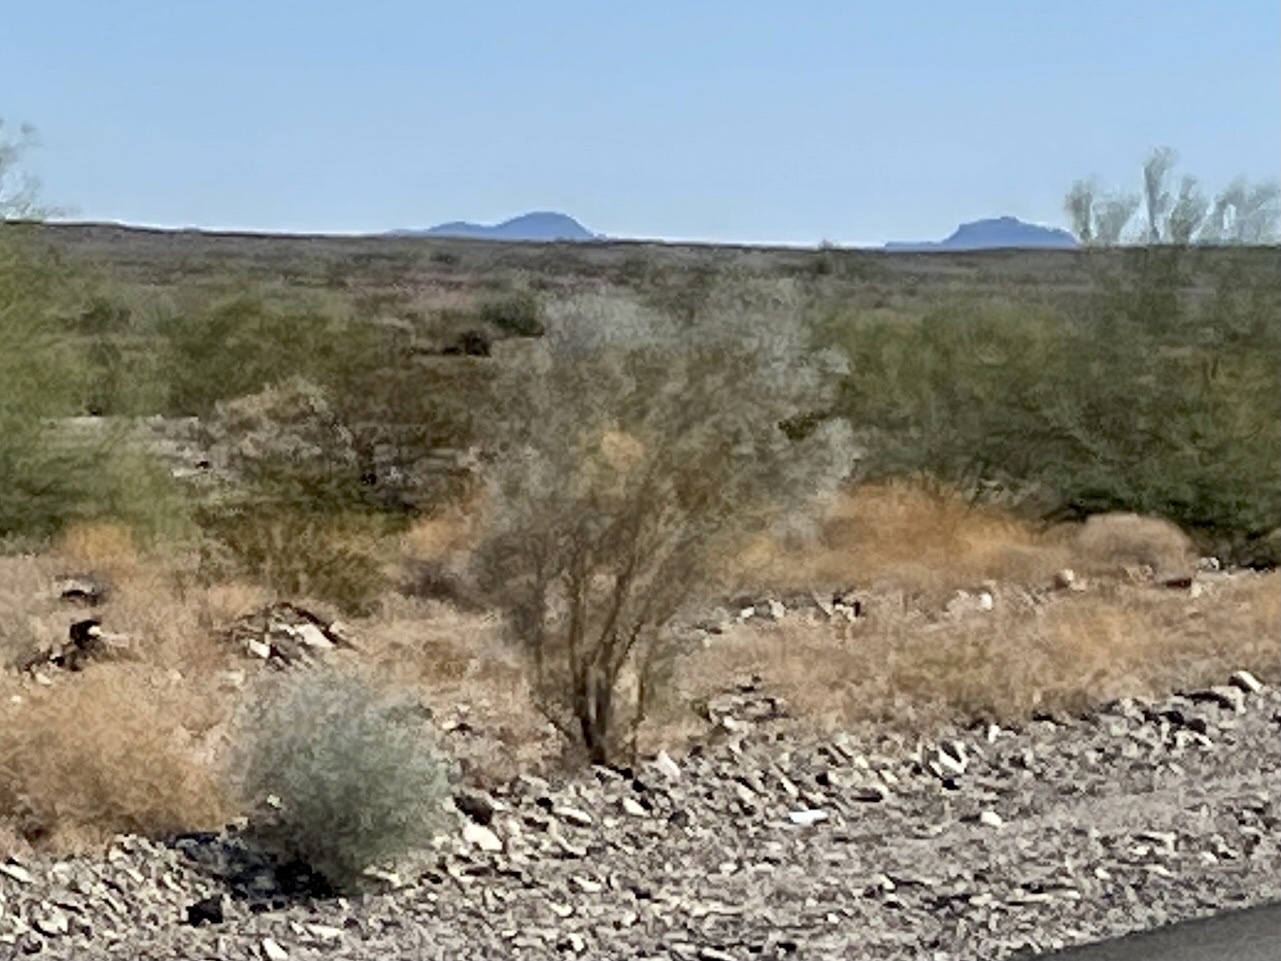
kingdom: Plantae
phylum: Tracheophyta
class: Magnoliopsida
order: Fabales
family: Fabaceae
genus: Psorothamnus
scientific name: Psorothamnus spinosus
